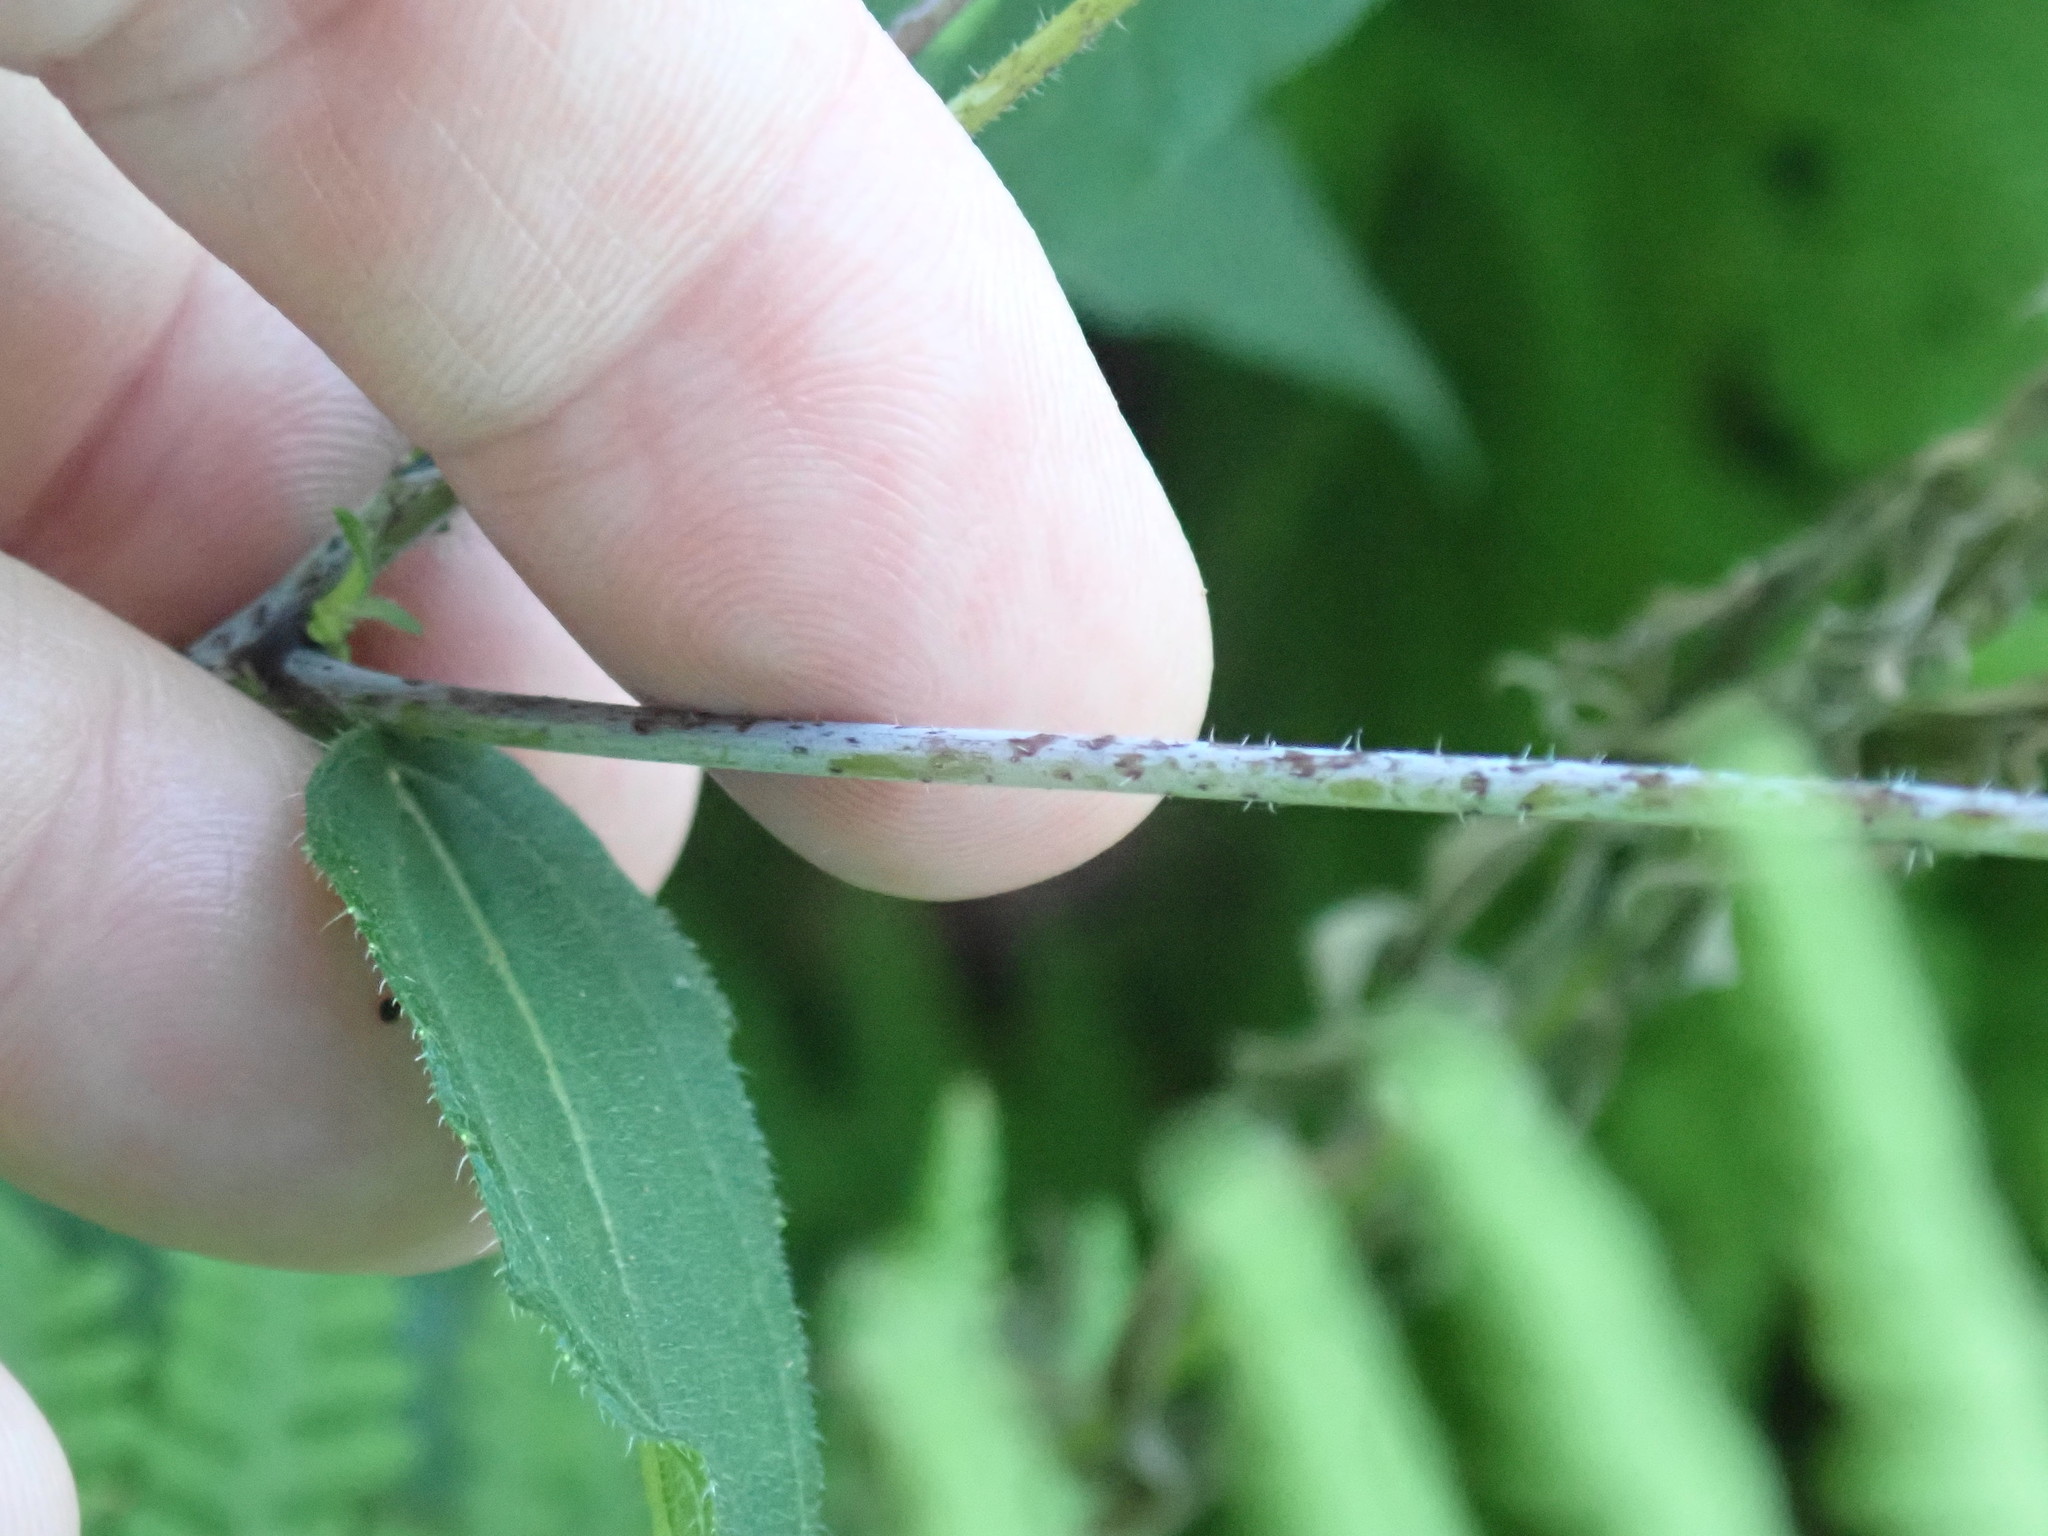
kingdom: Plantae
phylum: Tracheophyta
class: Magnoliopsida
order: Asterales
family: Asteraceae
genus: Helianthus
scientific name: Helianthus divaricatus
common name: Divergent sunflower
